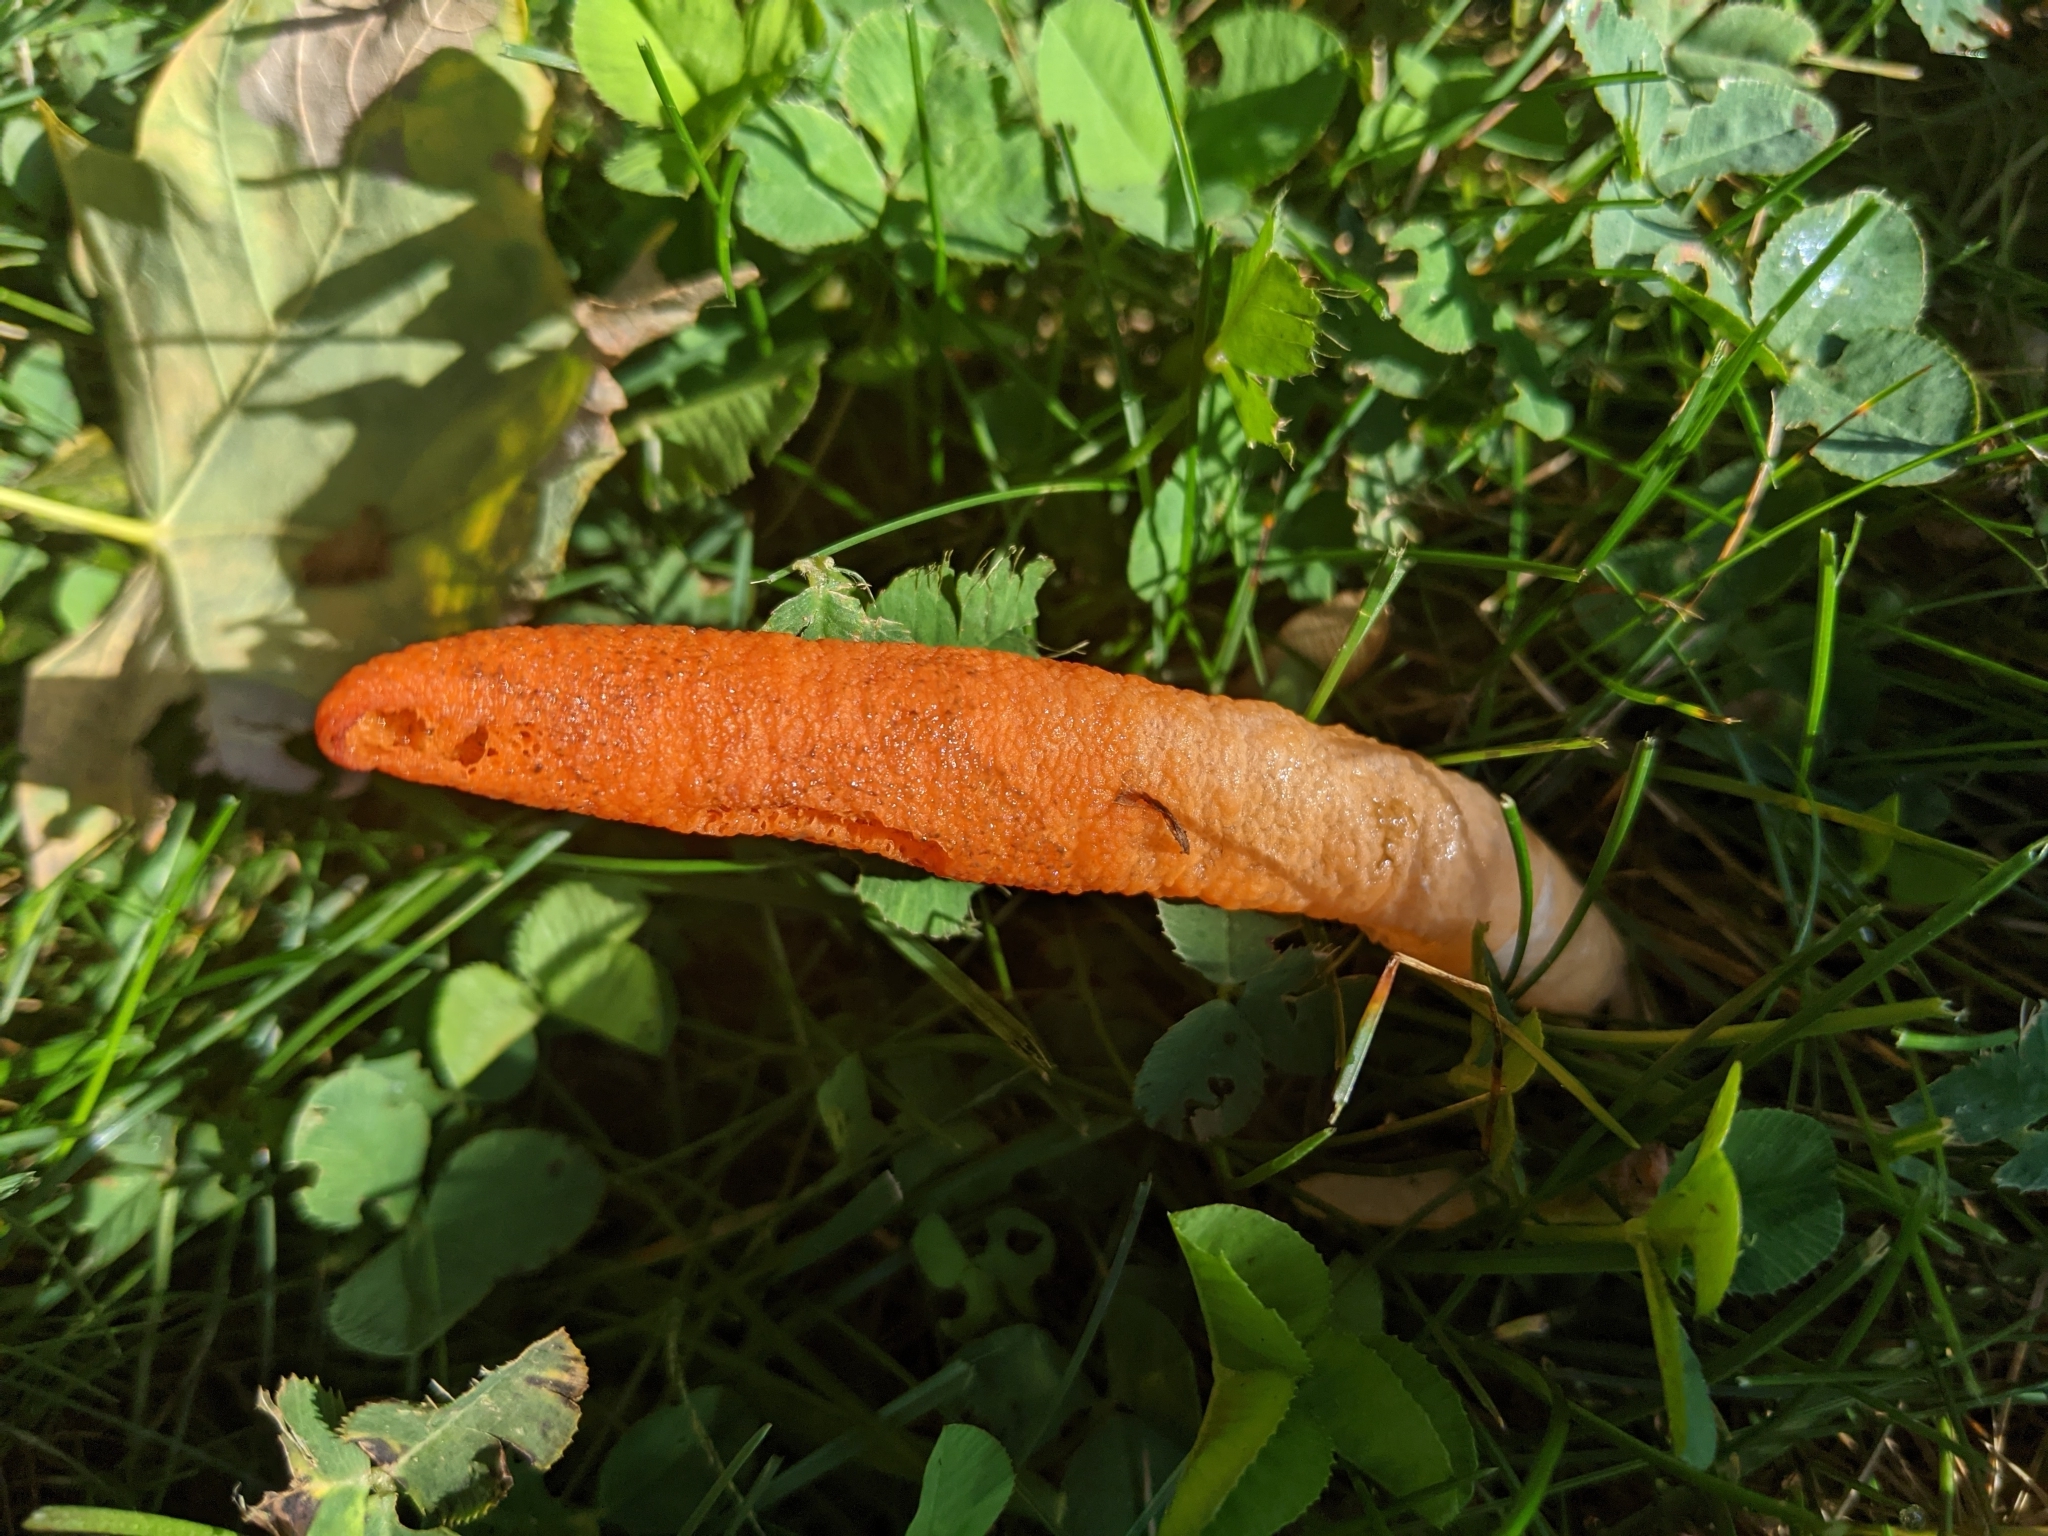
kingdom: Fungi
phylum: Basidiomycota
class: Agaricomycetes
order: Phallales
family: Phallaceae
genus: Mutinus
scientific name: Mutinus elegans
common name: Devil's dipstick
